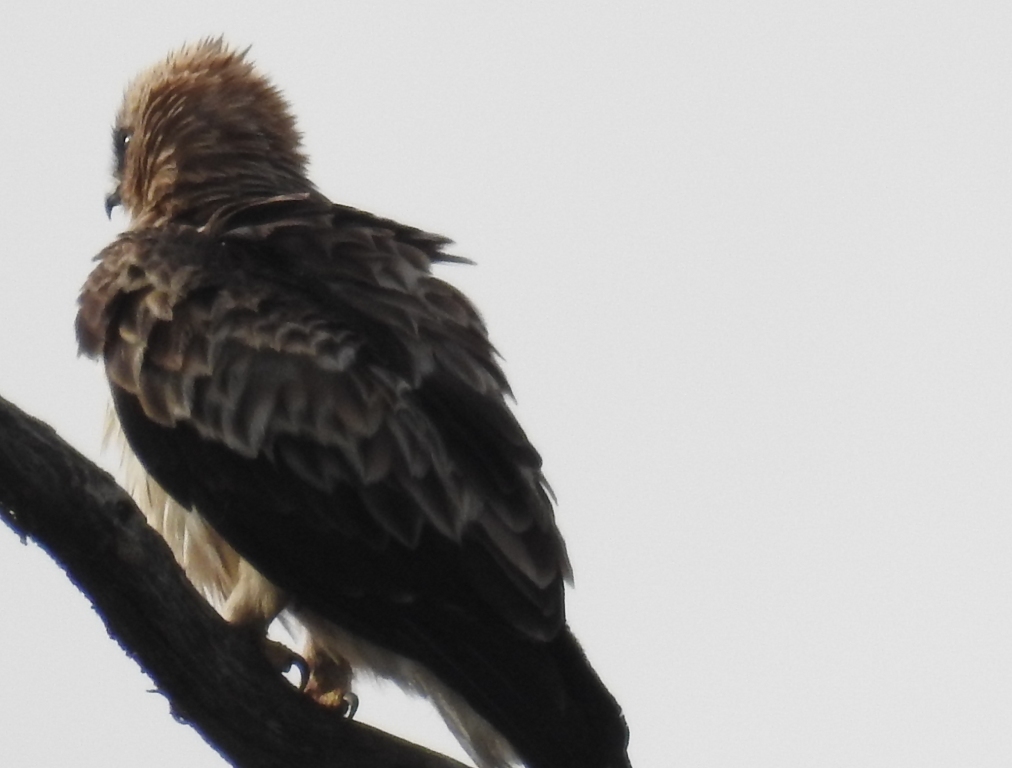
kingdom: Animalia
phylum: Chordata
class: Aves
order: Accipitriformes
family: Accipitridae
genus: Hieraaetus
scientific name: Hieraaetus pennatus
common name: Booted eagle
